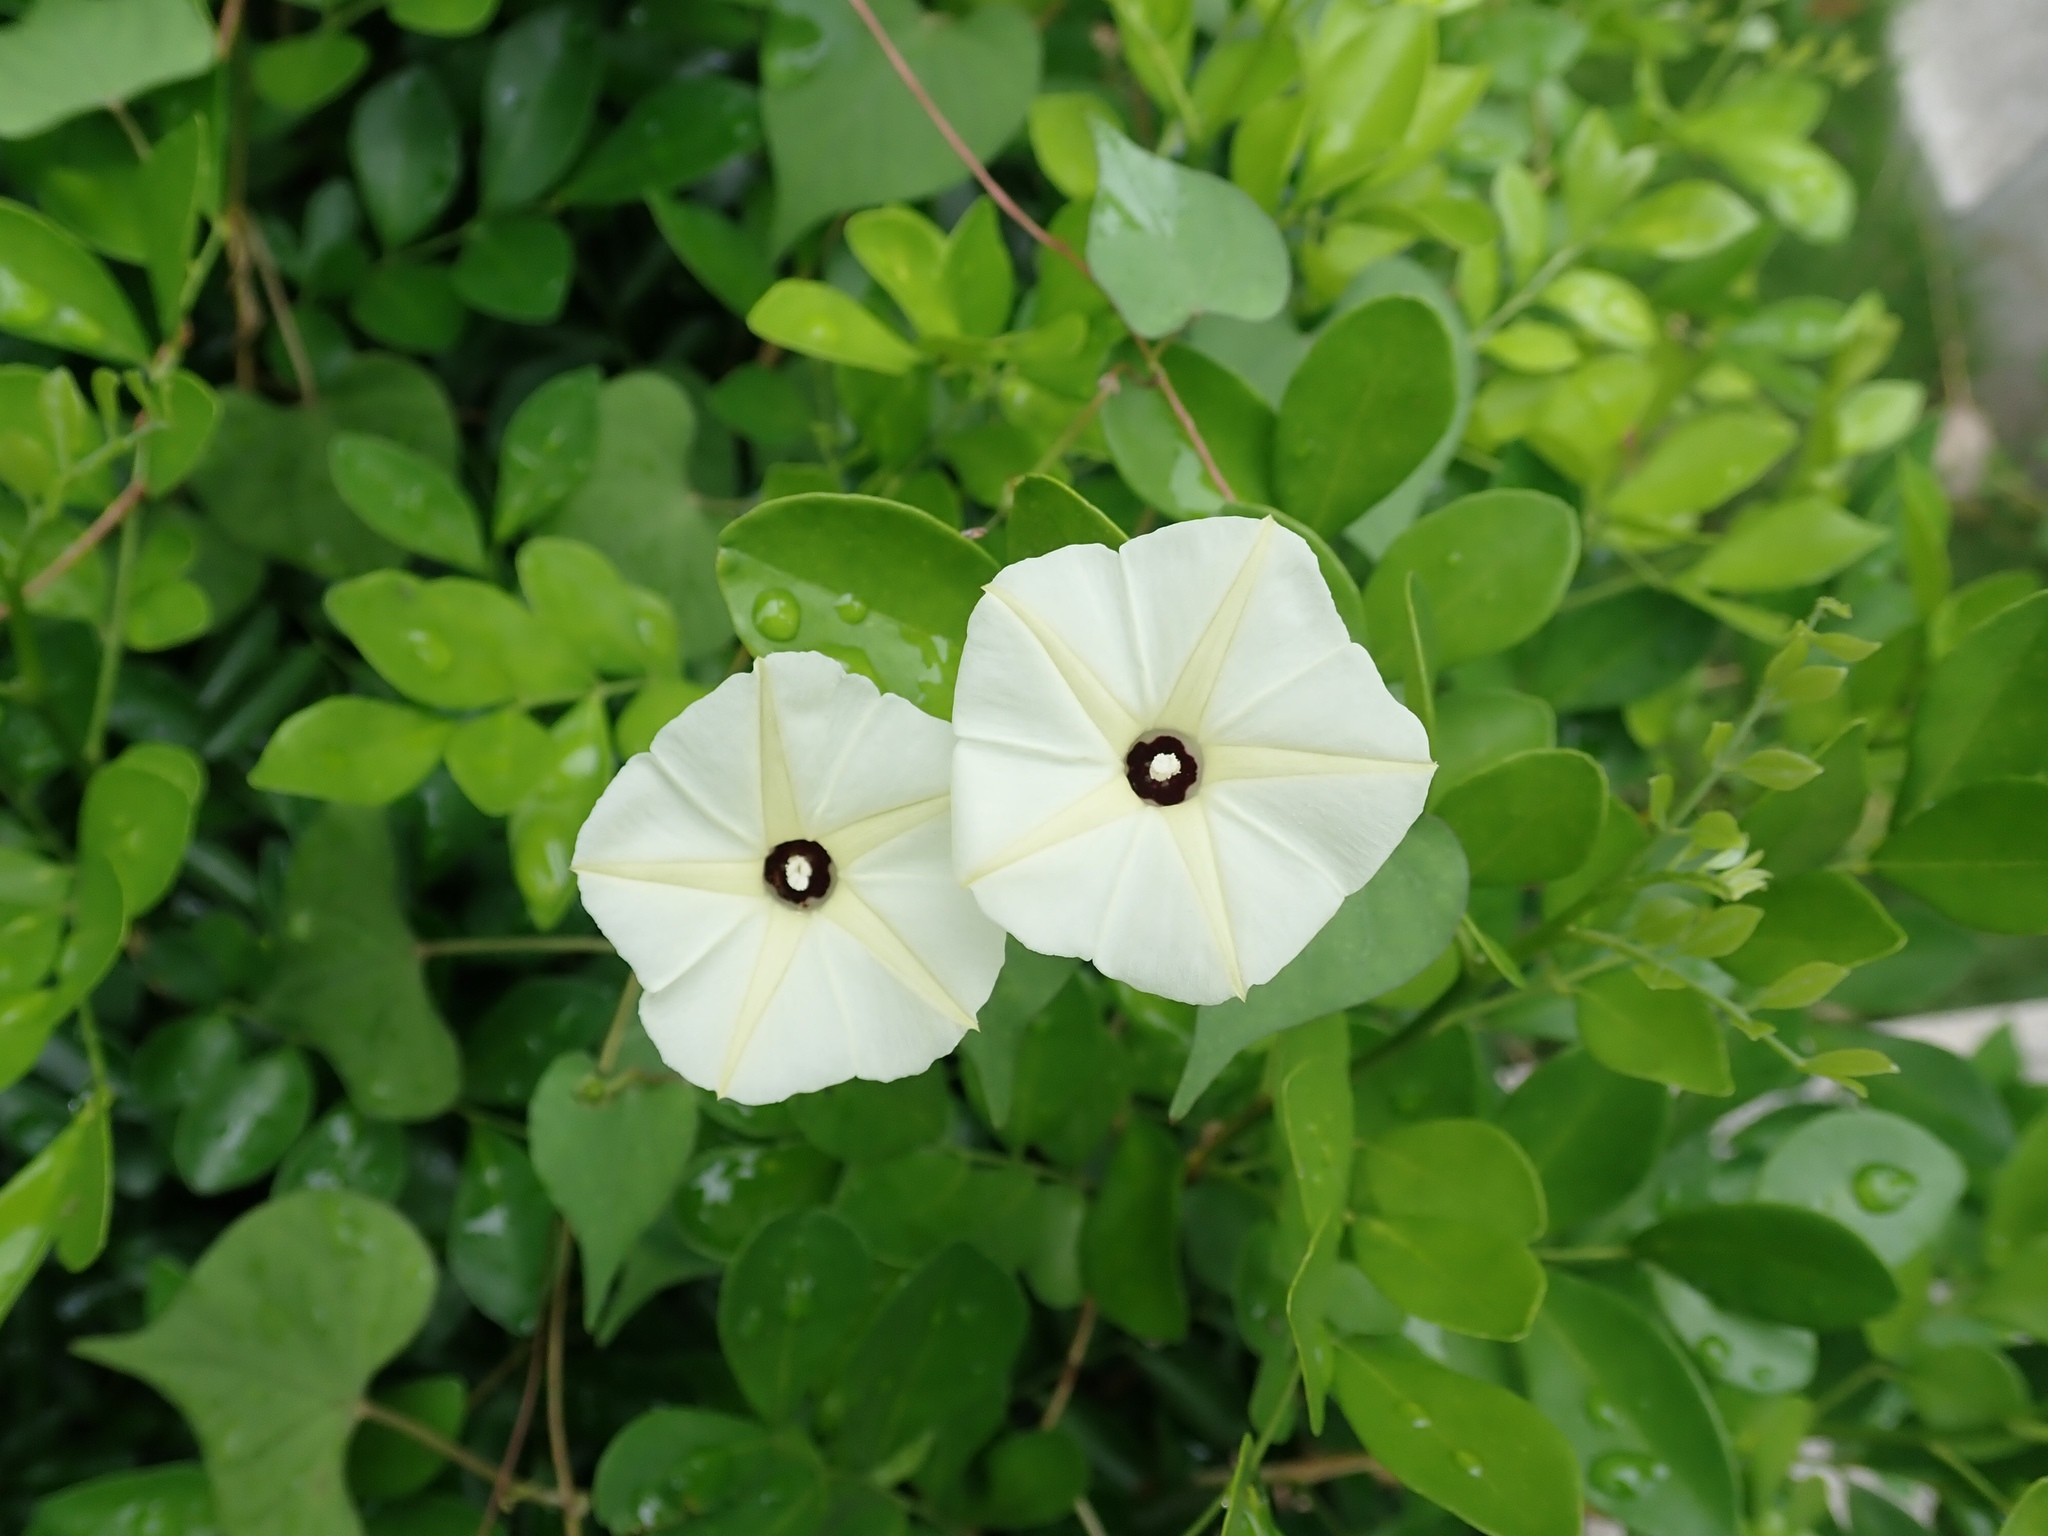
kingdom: Plantae
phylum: Tracheophyta
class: Magnoliopsida
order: Solanales
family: Convolvulaceae
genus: Ipomoea
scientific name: Ipomoea obscura
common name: Obscure morning-glory
